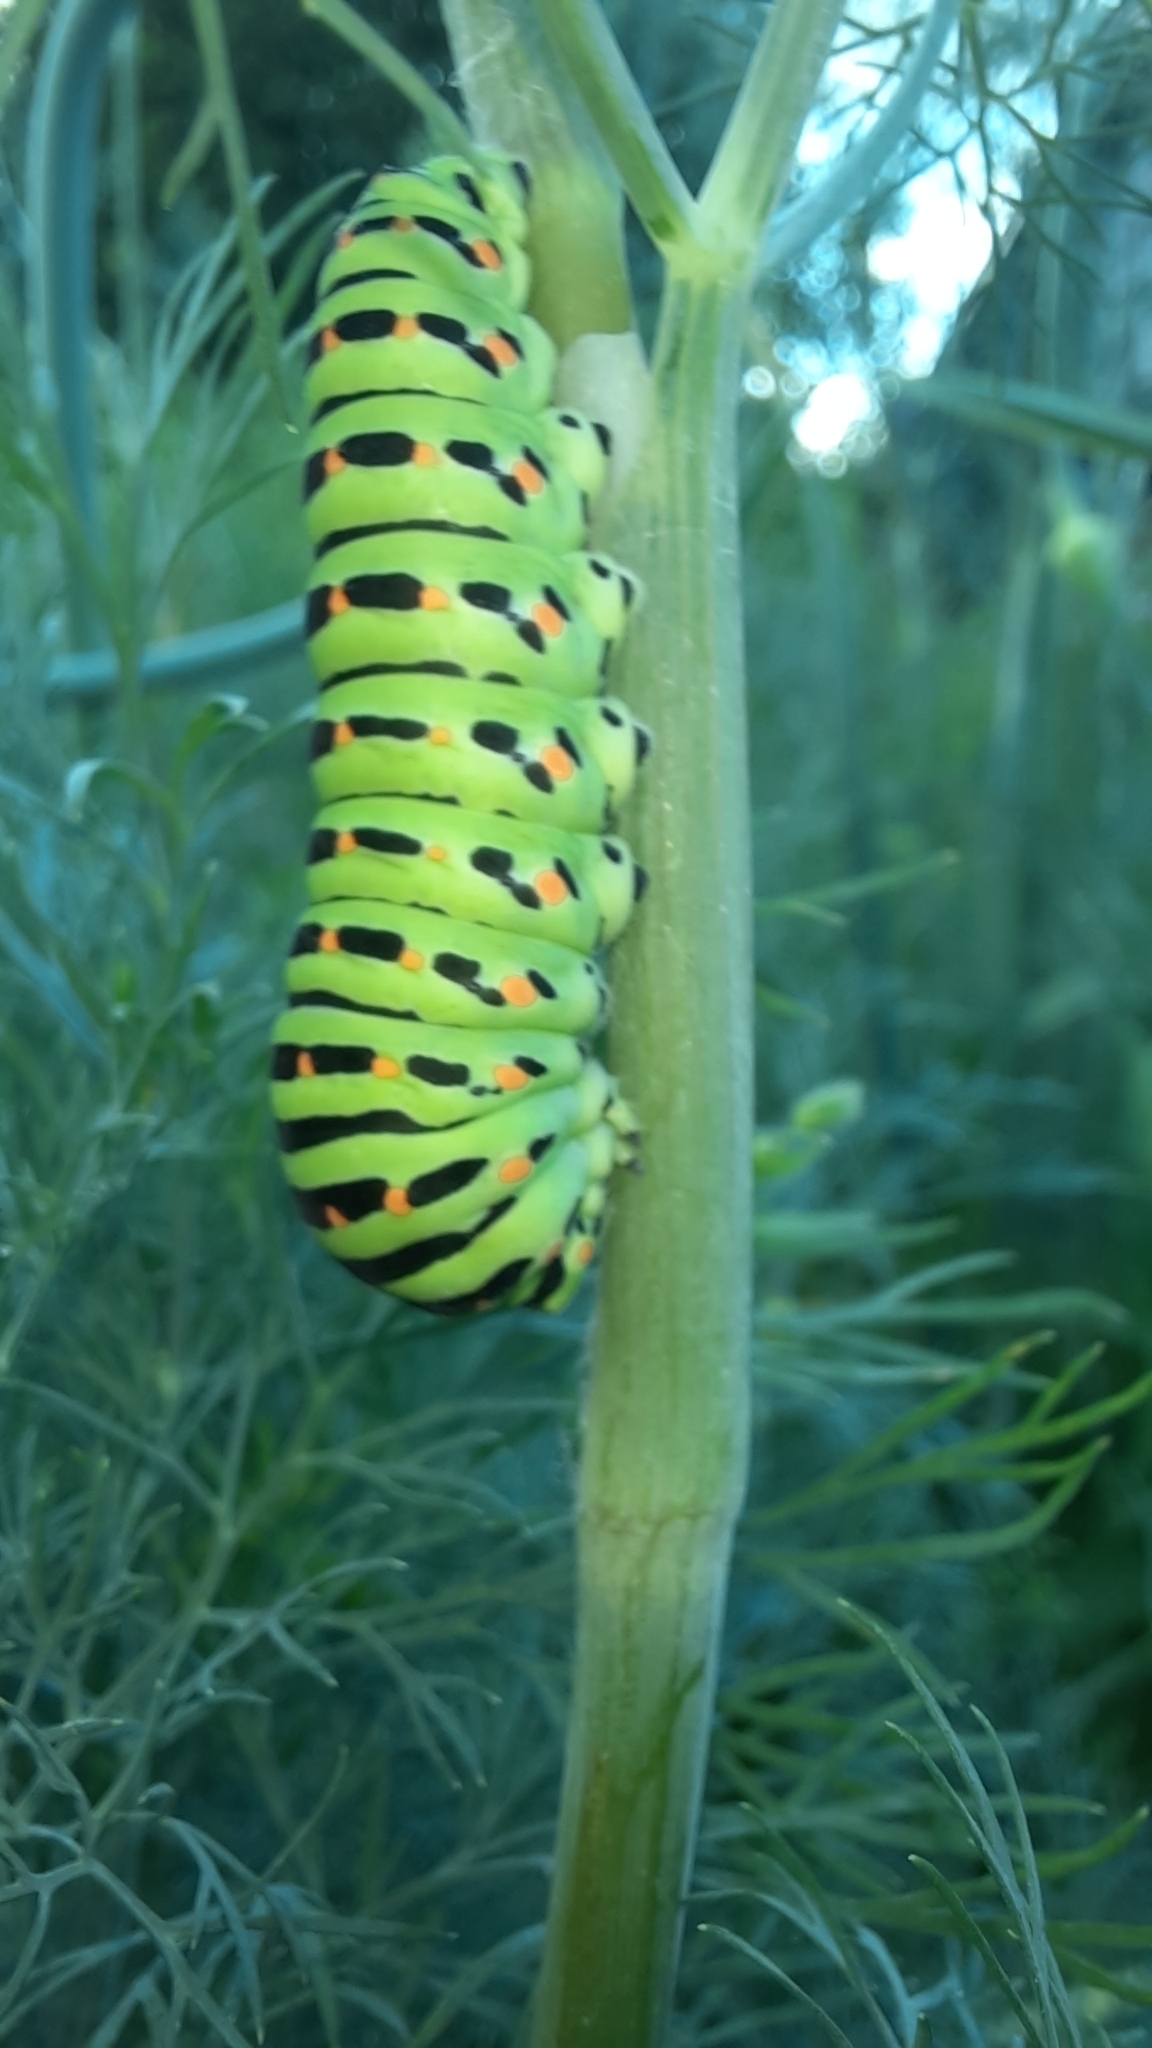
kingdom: Animalia
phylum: Arthropoda
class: Insecta
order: Lepidoptera
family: Papilionidae
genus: Papilio
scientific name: Papilio machaon
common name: Swallowtail
